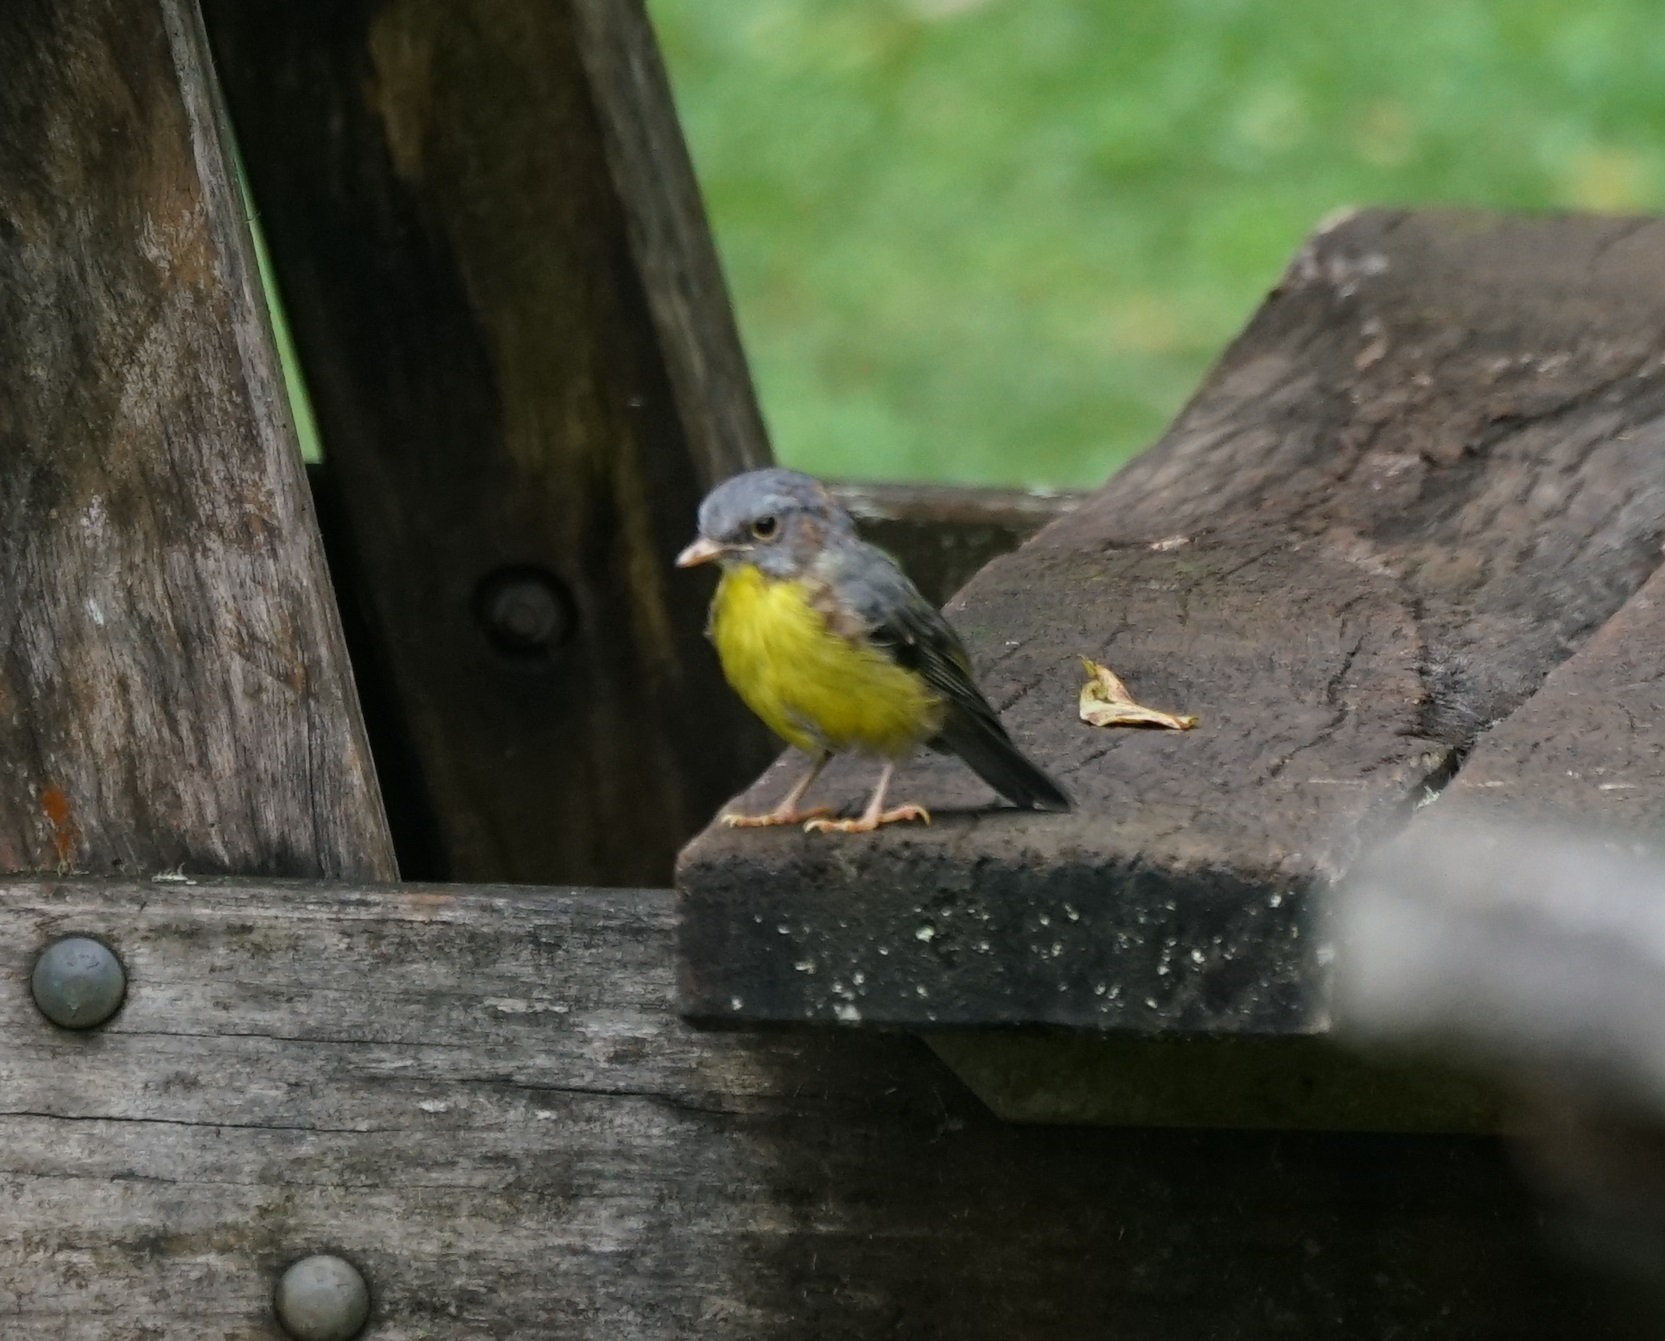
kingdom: Animalia
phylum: Chordata
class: Aves
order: Passeriformes
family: Petroicidae
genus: Eopsaltria
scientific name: Eopsaltria australis
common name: Eastern yellow robin
